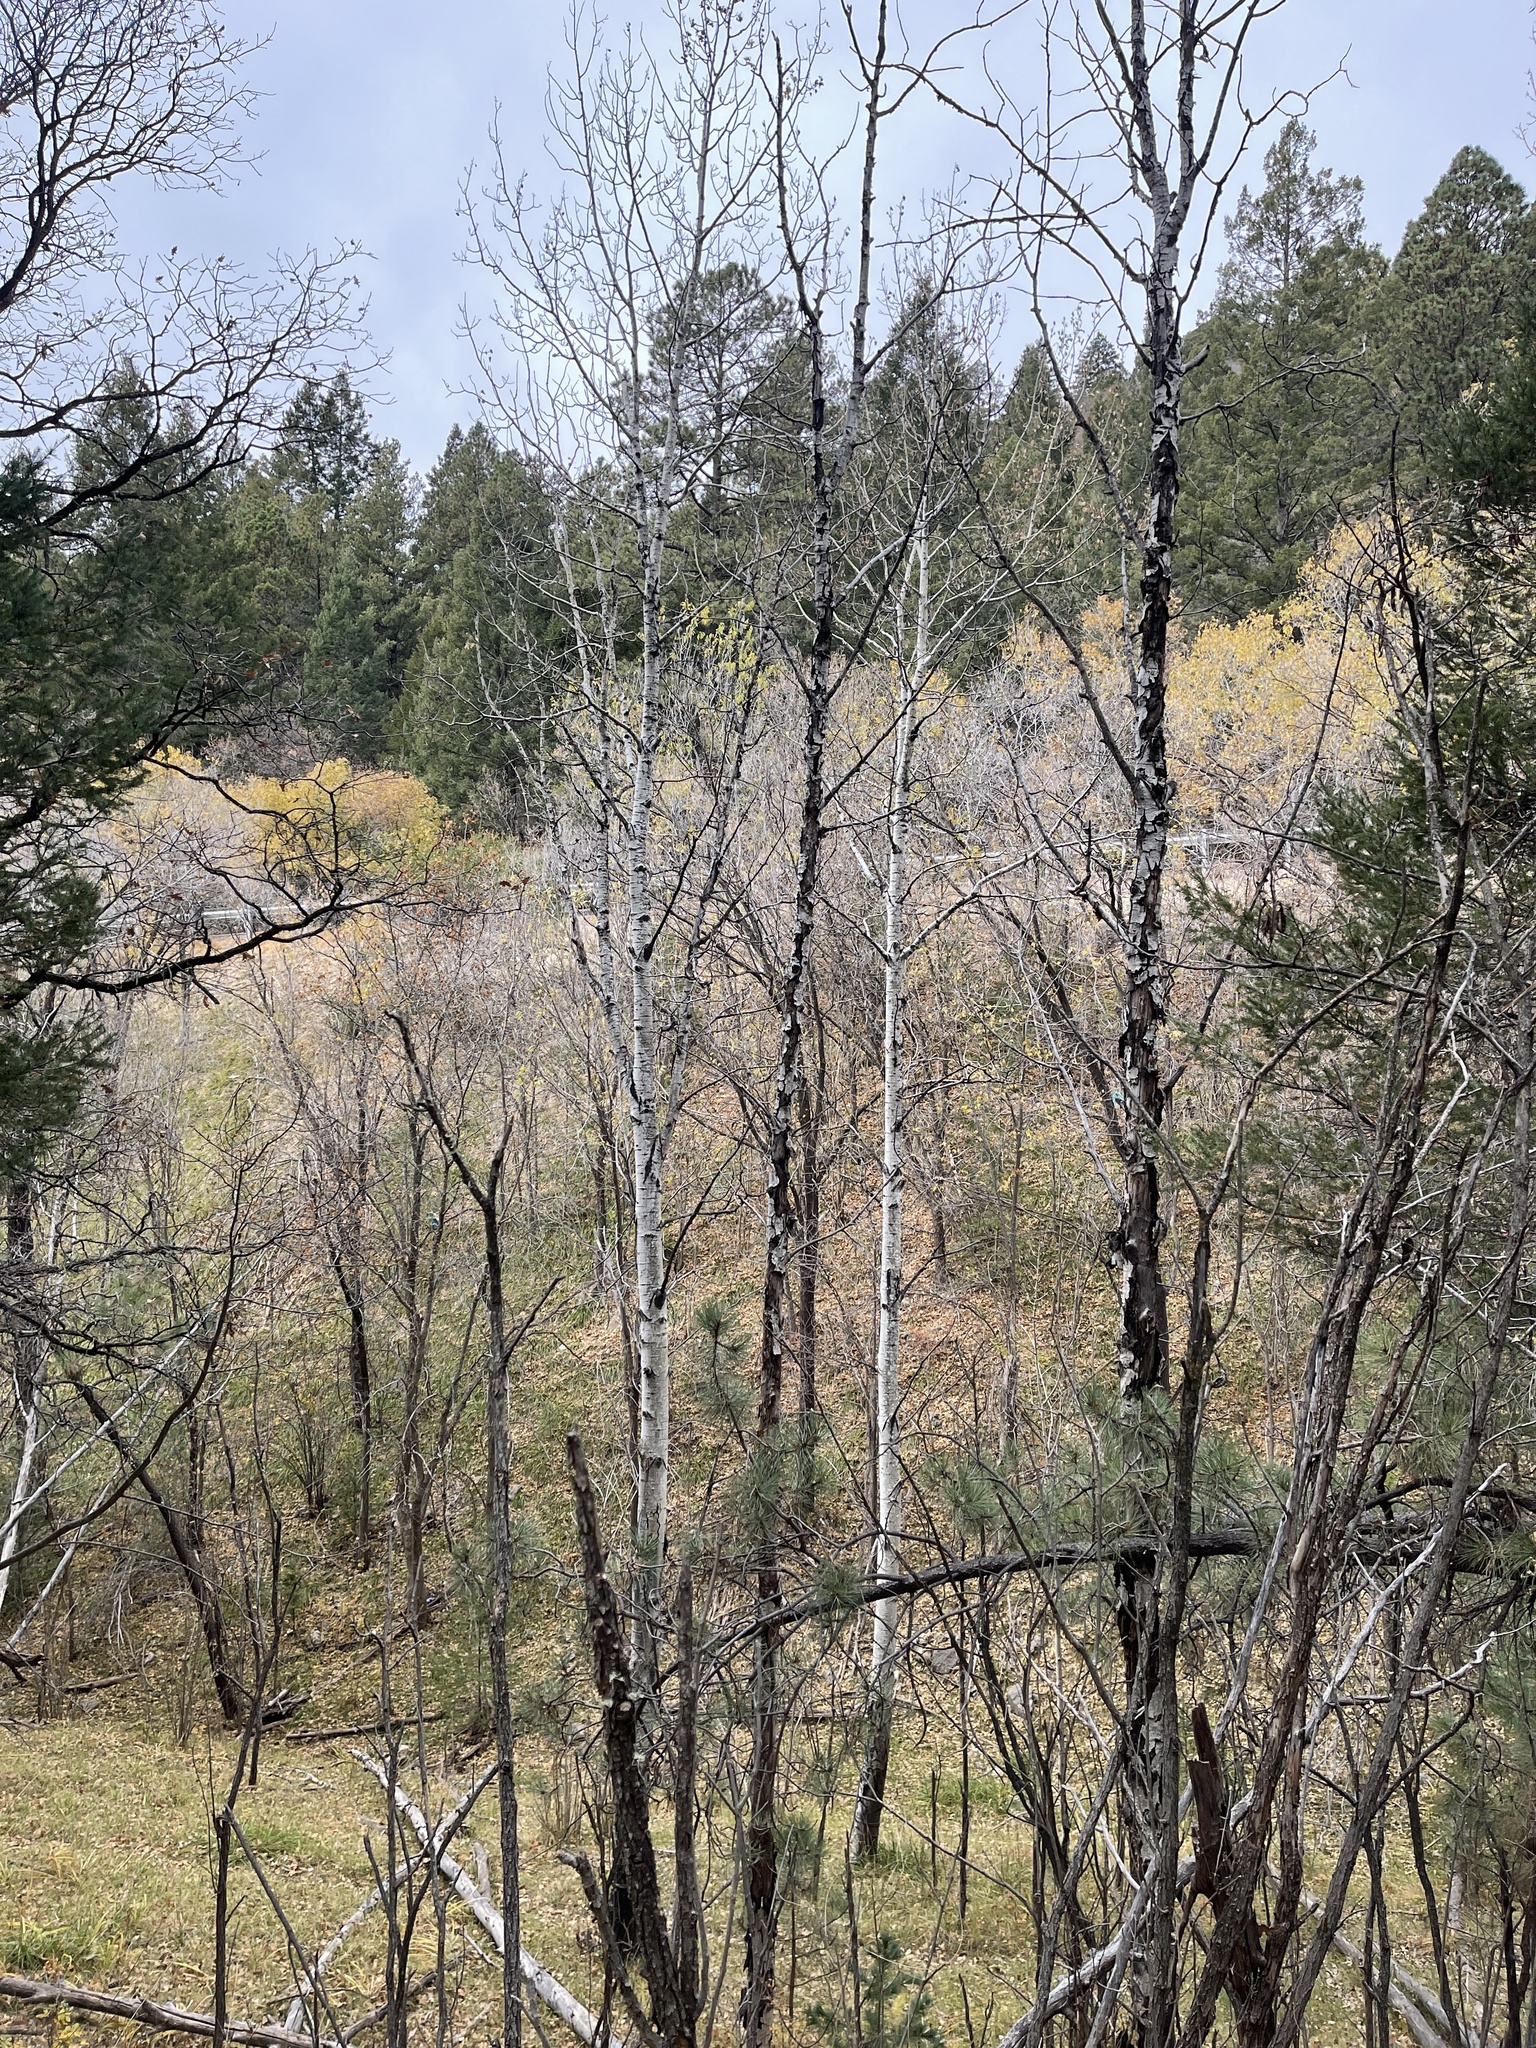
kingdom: Plantae
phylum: Tracheophyta
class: Magnoliopsida
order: Malpighiales
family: Salicaceae
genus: Populus
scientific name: Populus tremuloides
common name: Quaking aspen
